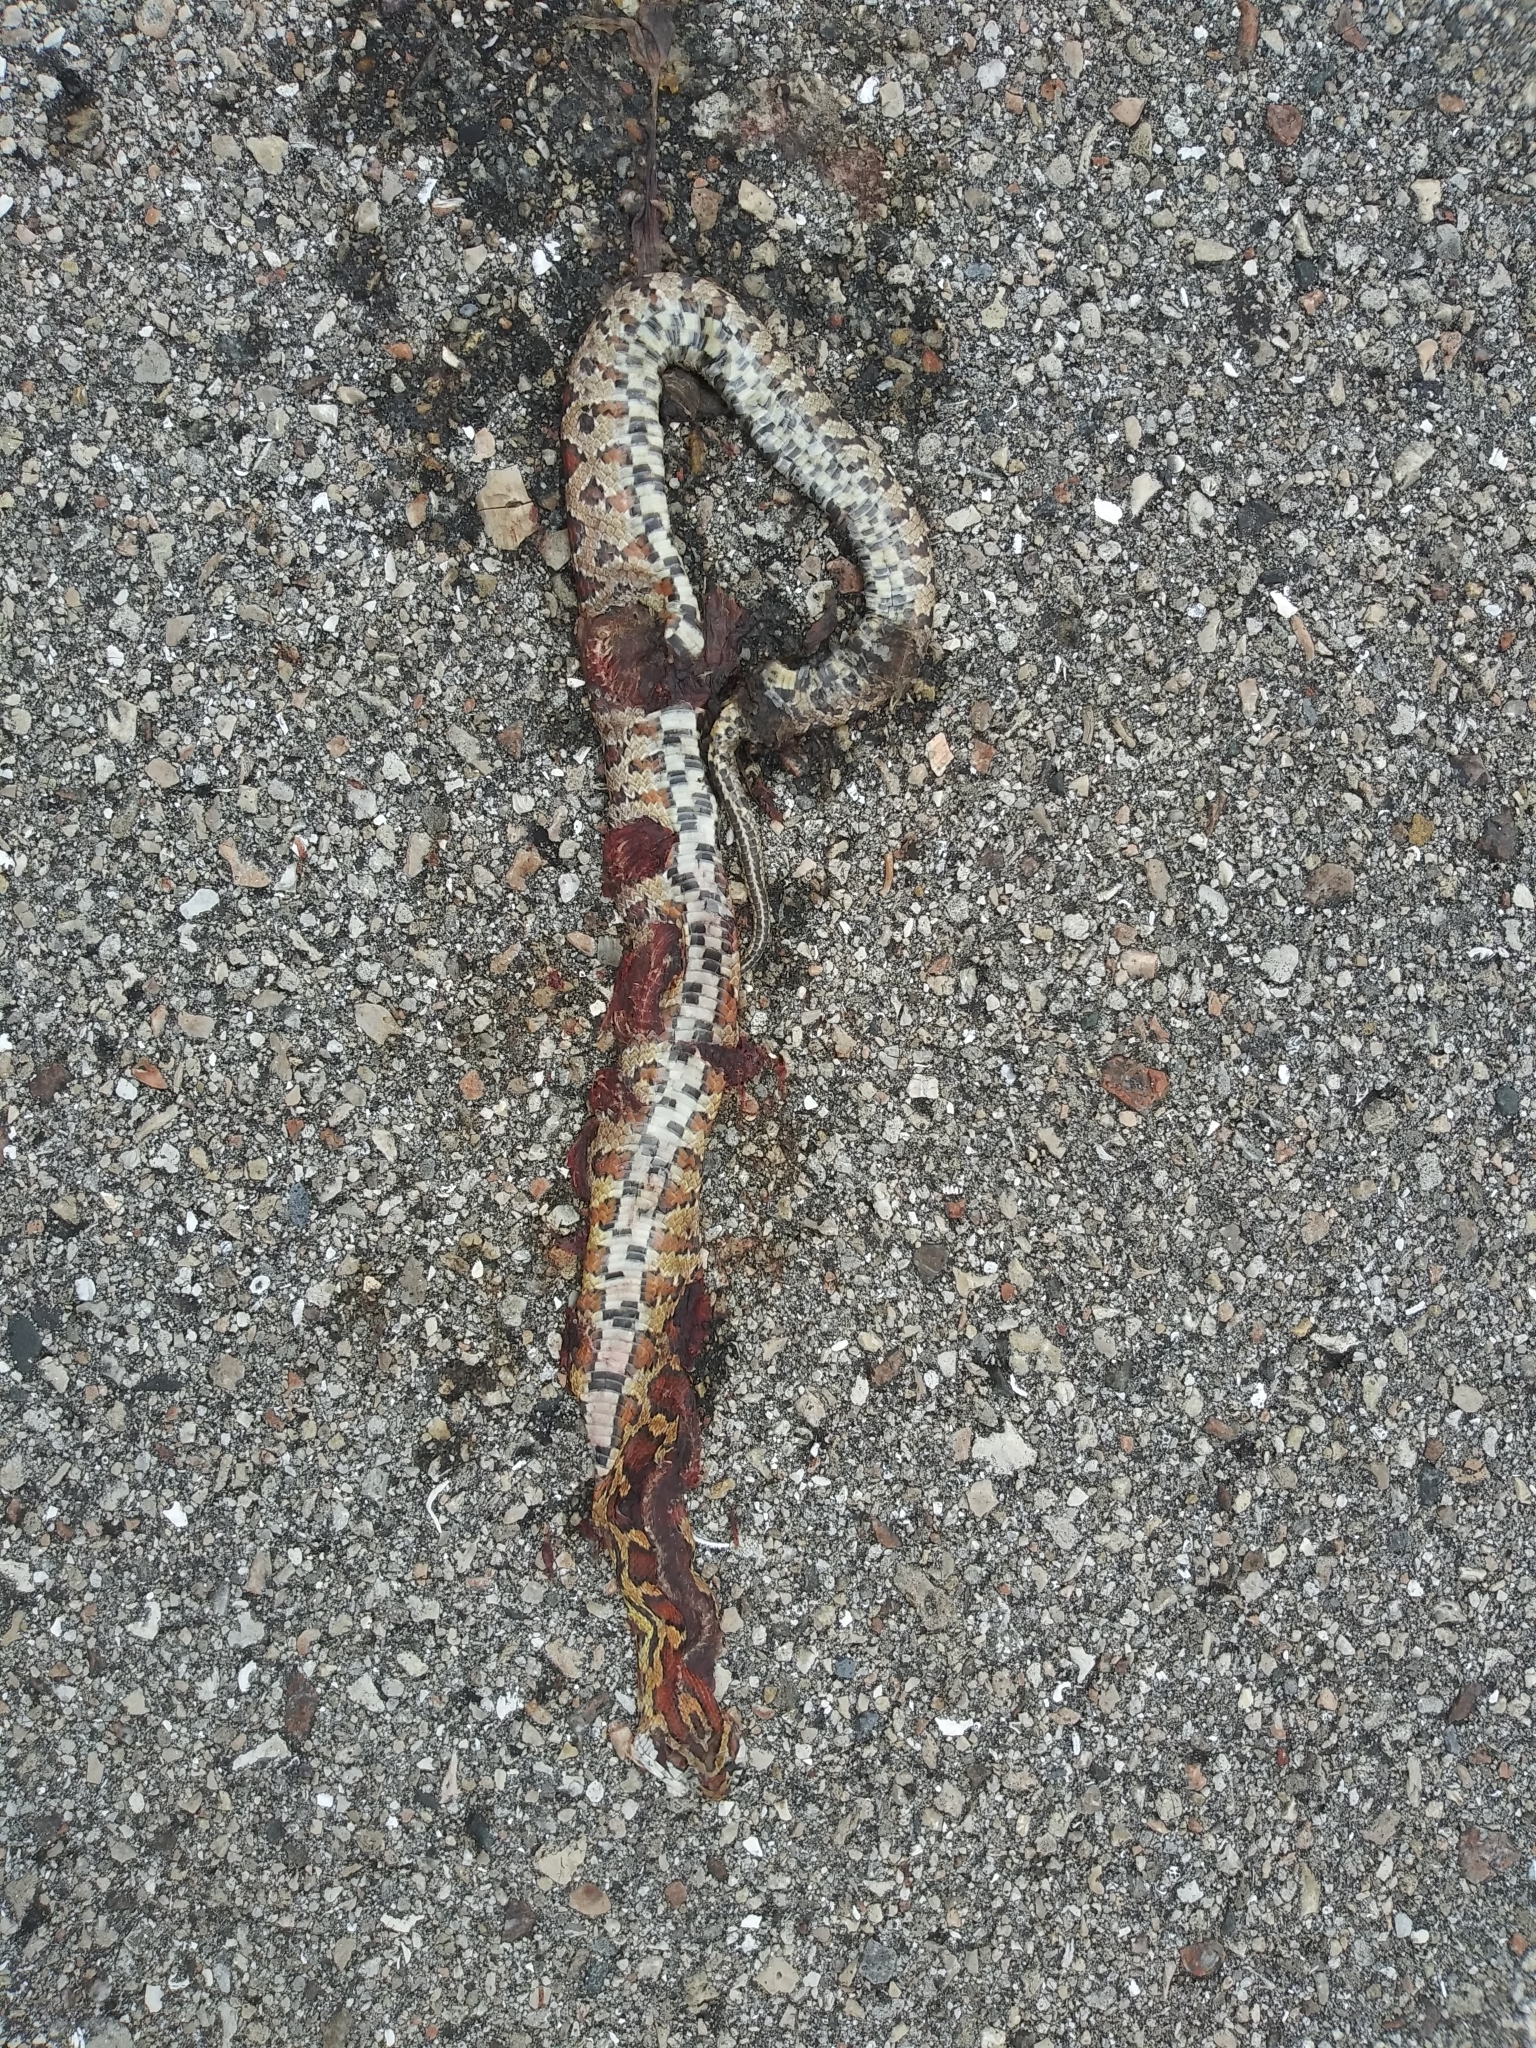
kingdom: Animalia
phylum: Chordata
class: Squamata
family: Colubridae
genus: Pantherophis
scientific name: Pantherophis guttatus
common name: Red cornsnake
